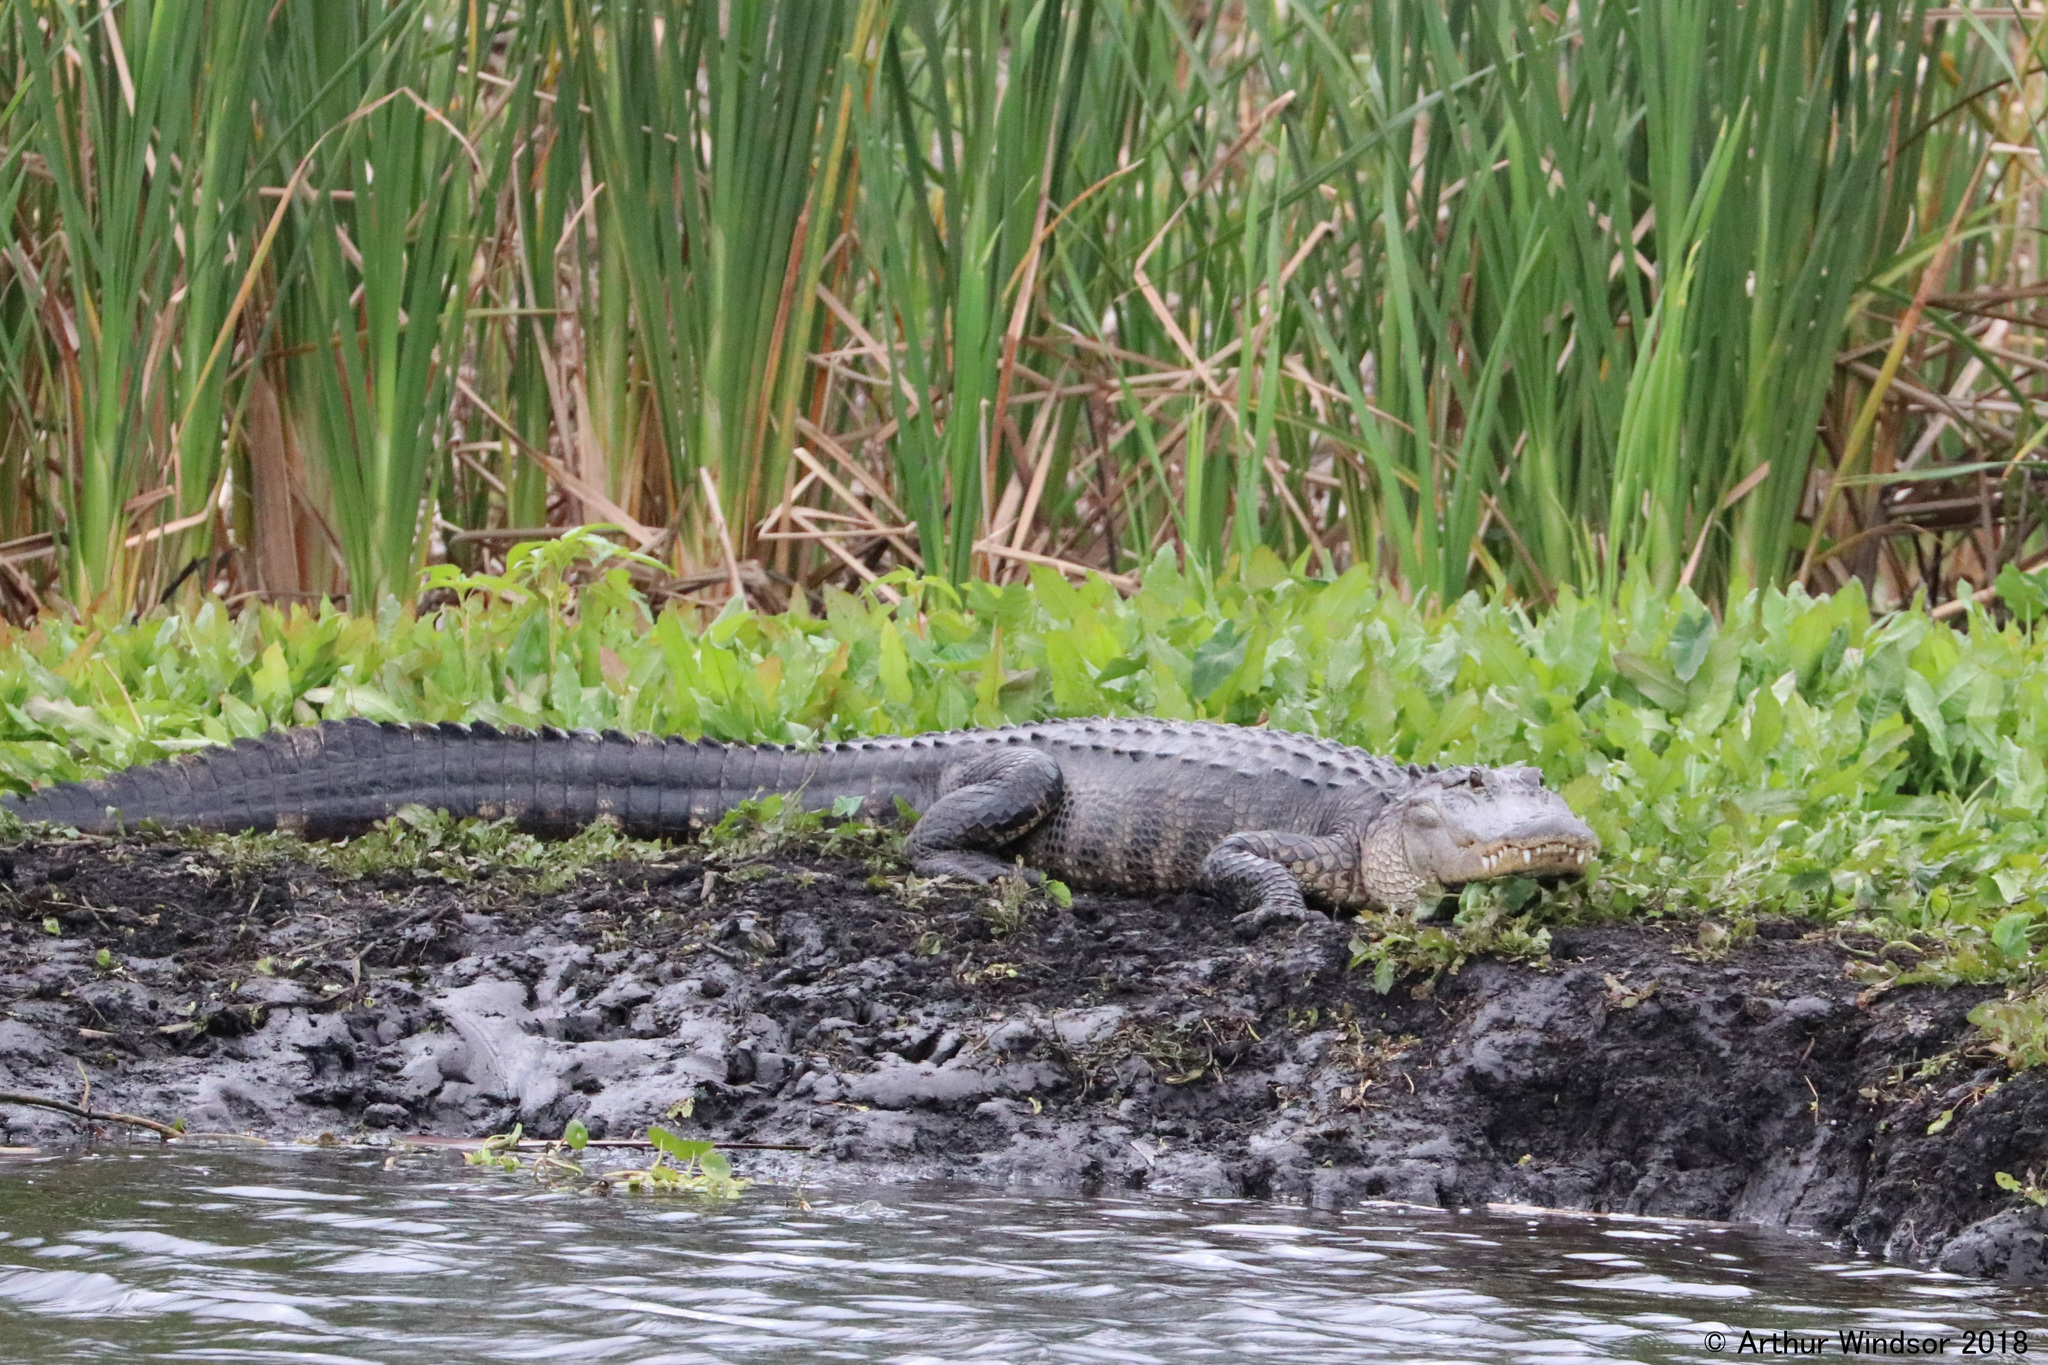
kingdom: Animalia
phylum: Chordata
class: Crocodylia
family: Alligatoridae
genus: Alligator
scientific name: Alligator mississippiensis
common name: American alligator
